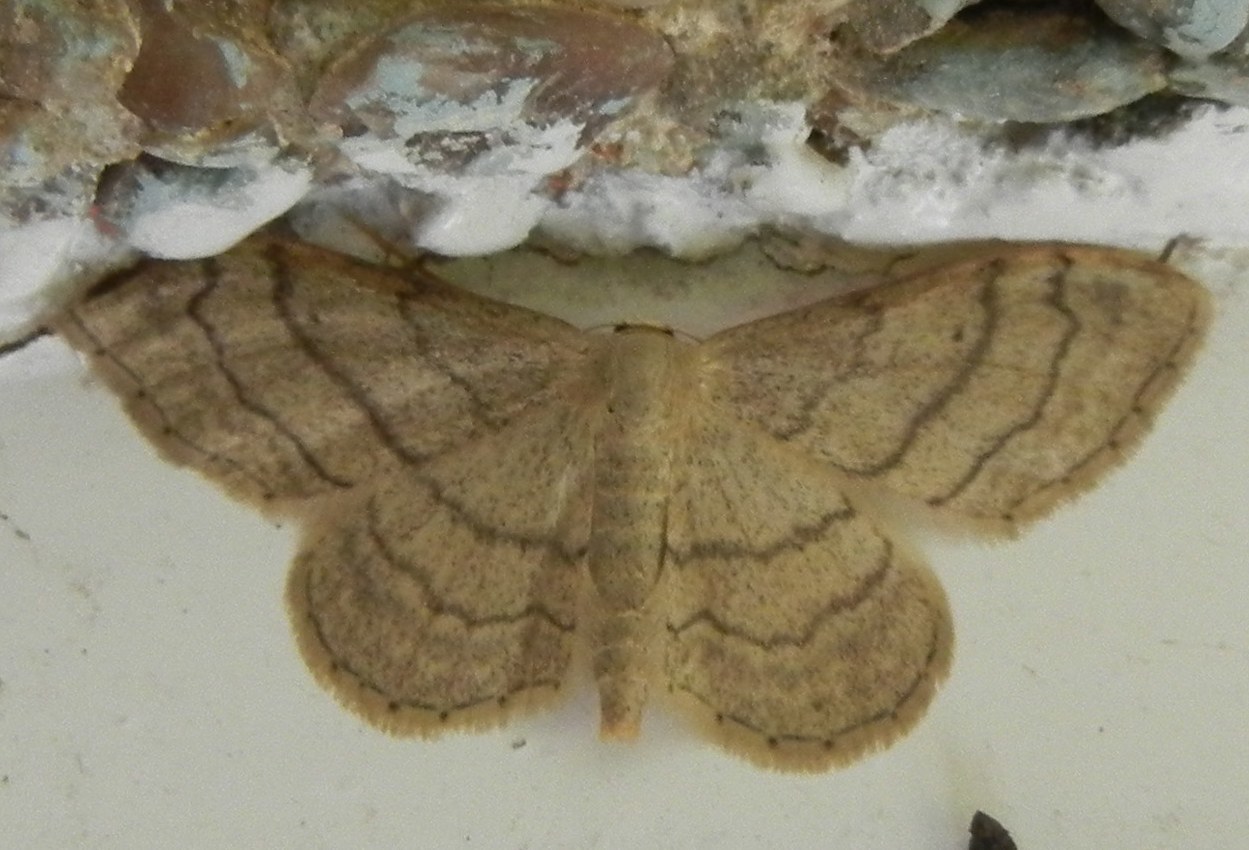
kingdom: Animalia
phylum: Arthropoda
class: Insecta
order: Lepidoptera
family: Geometridae
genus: Idaea
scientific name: Idaea aversata
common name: Riband wave
